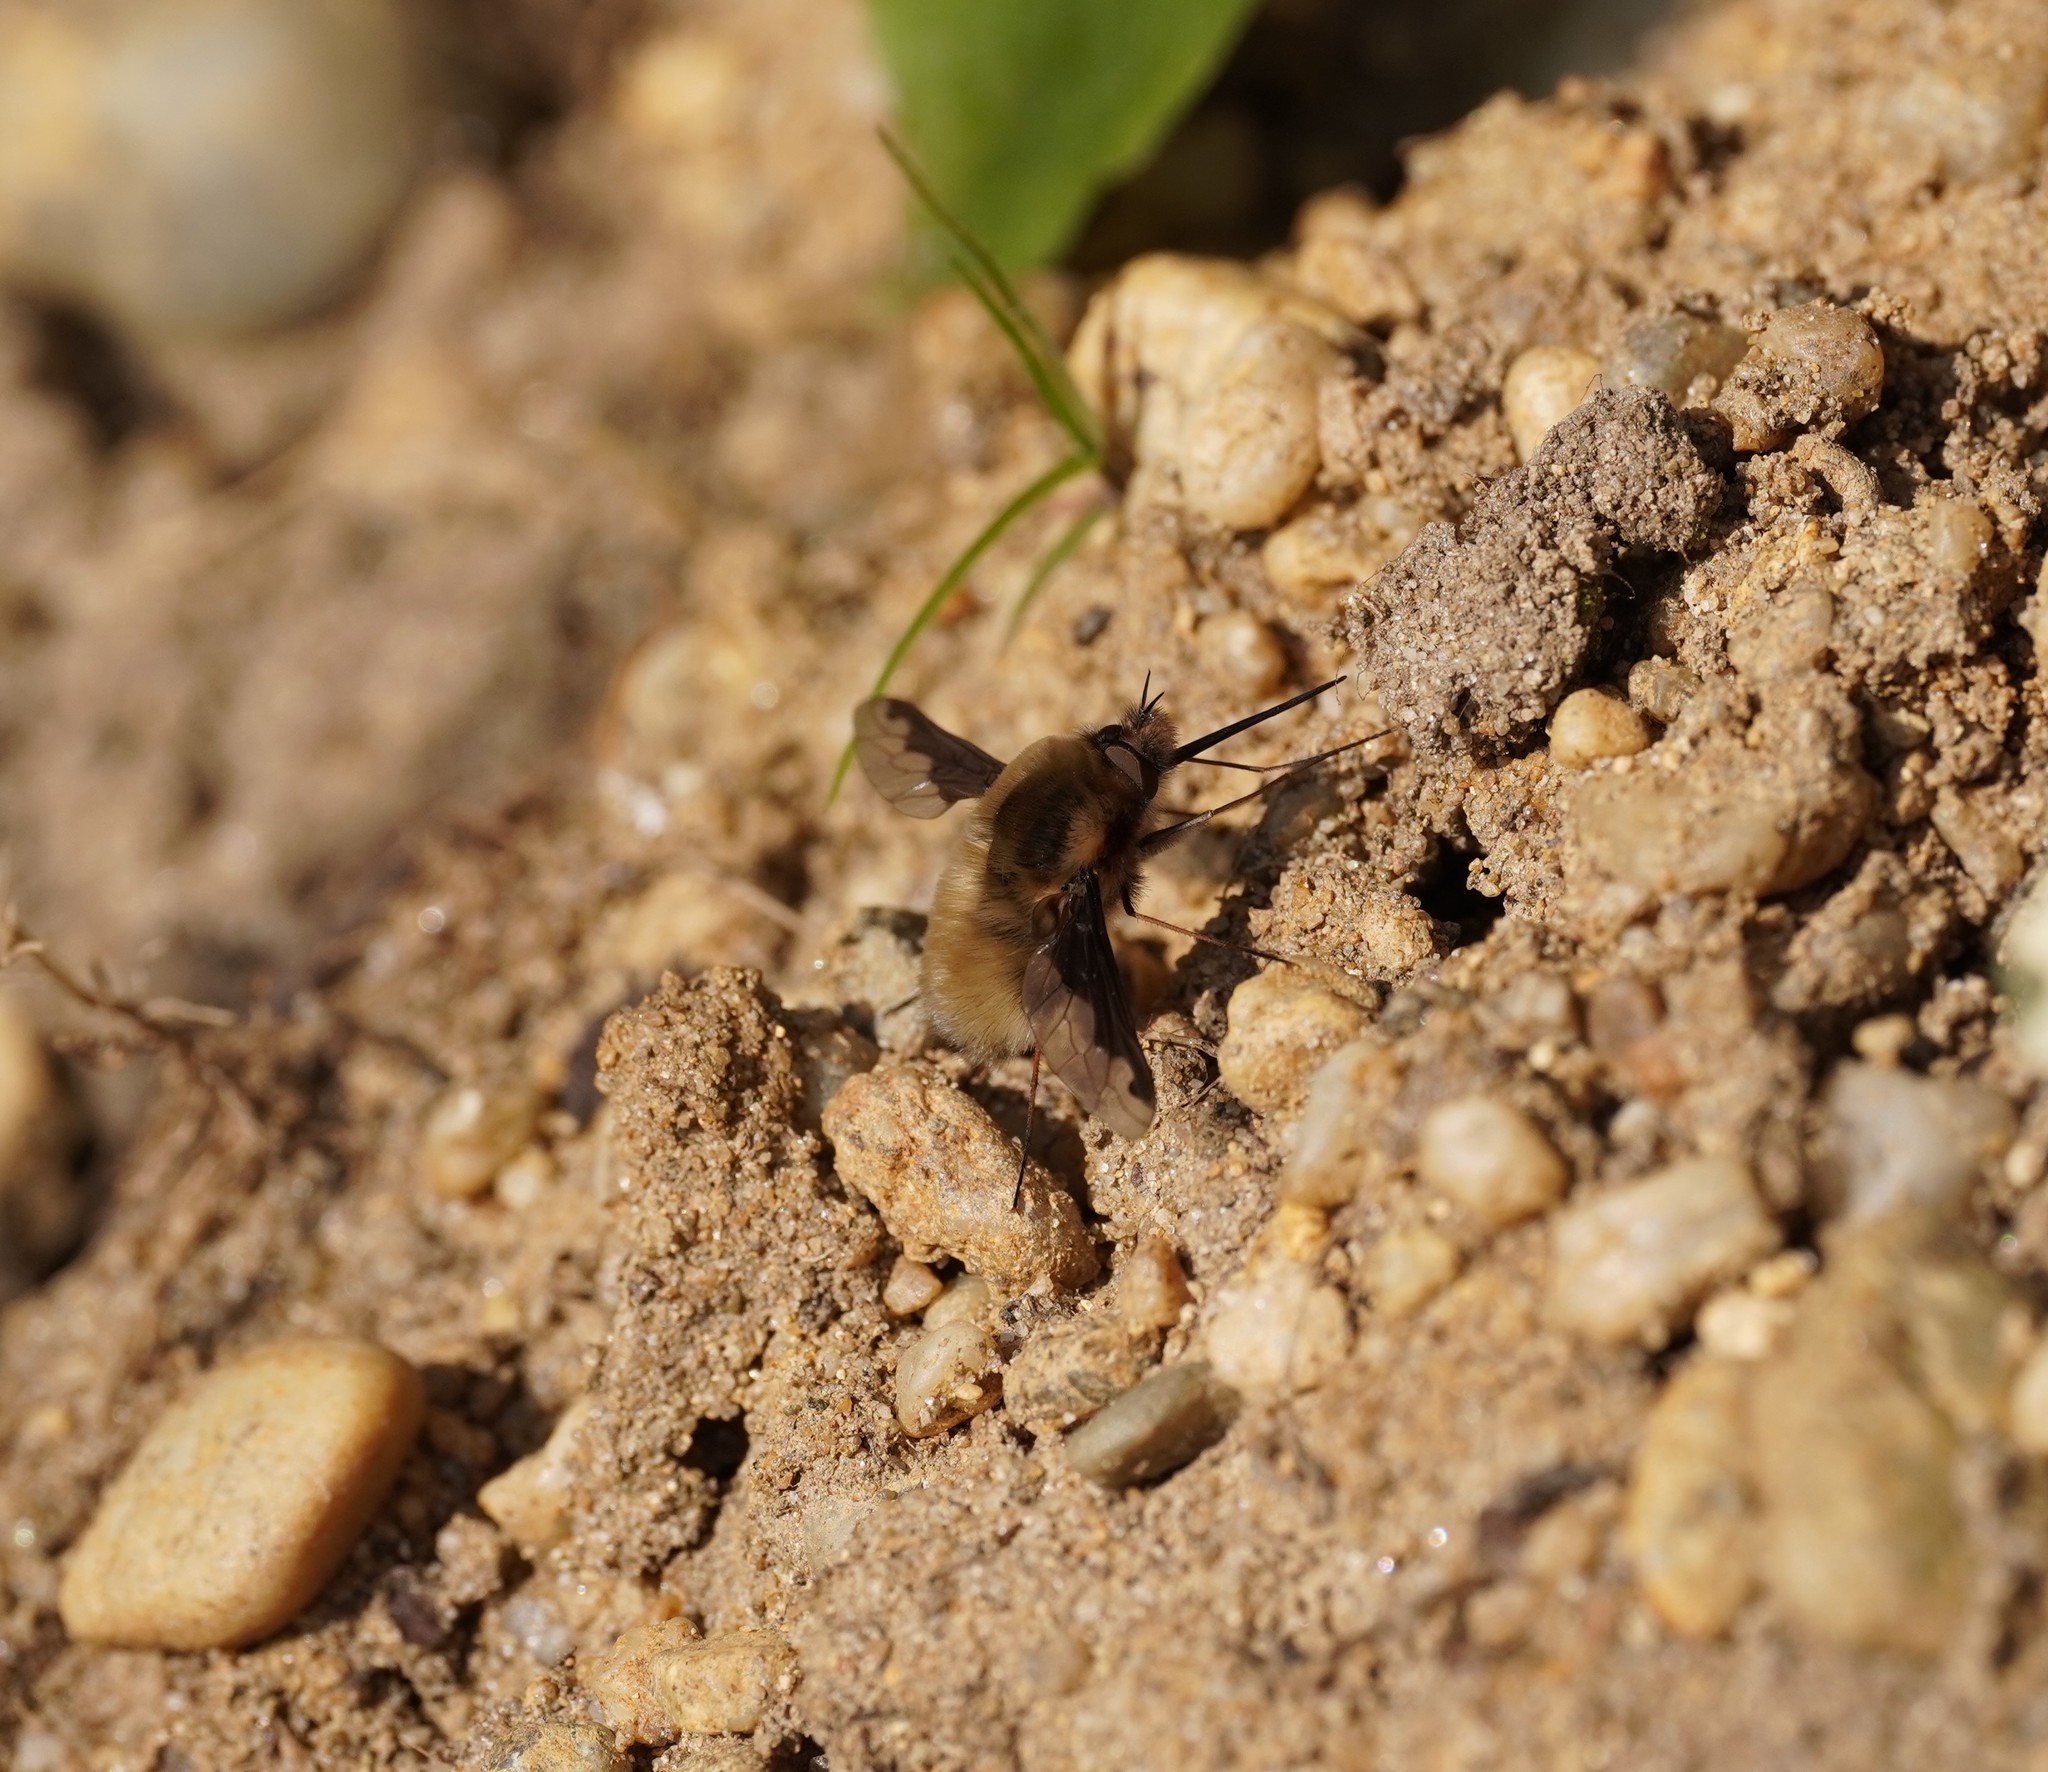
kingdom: Animalia
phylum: Arthropoda
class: Insecta
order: Diptera
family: Bombyliidae
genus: Bombylius
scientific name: Bombylius major
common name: Bee fly
